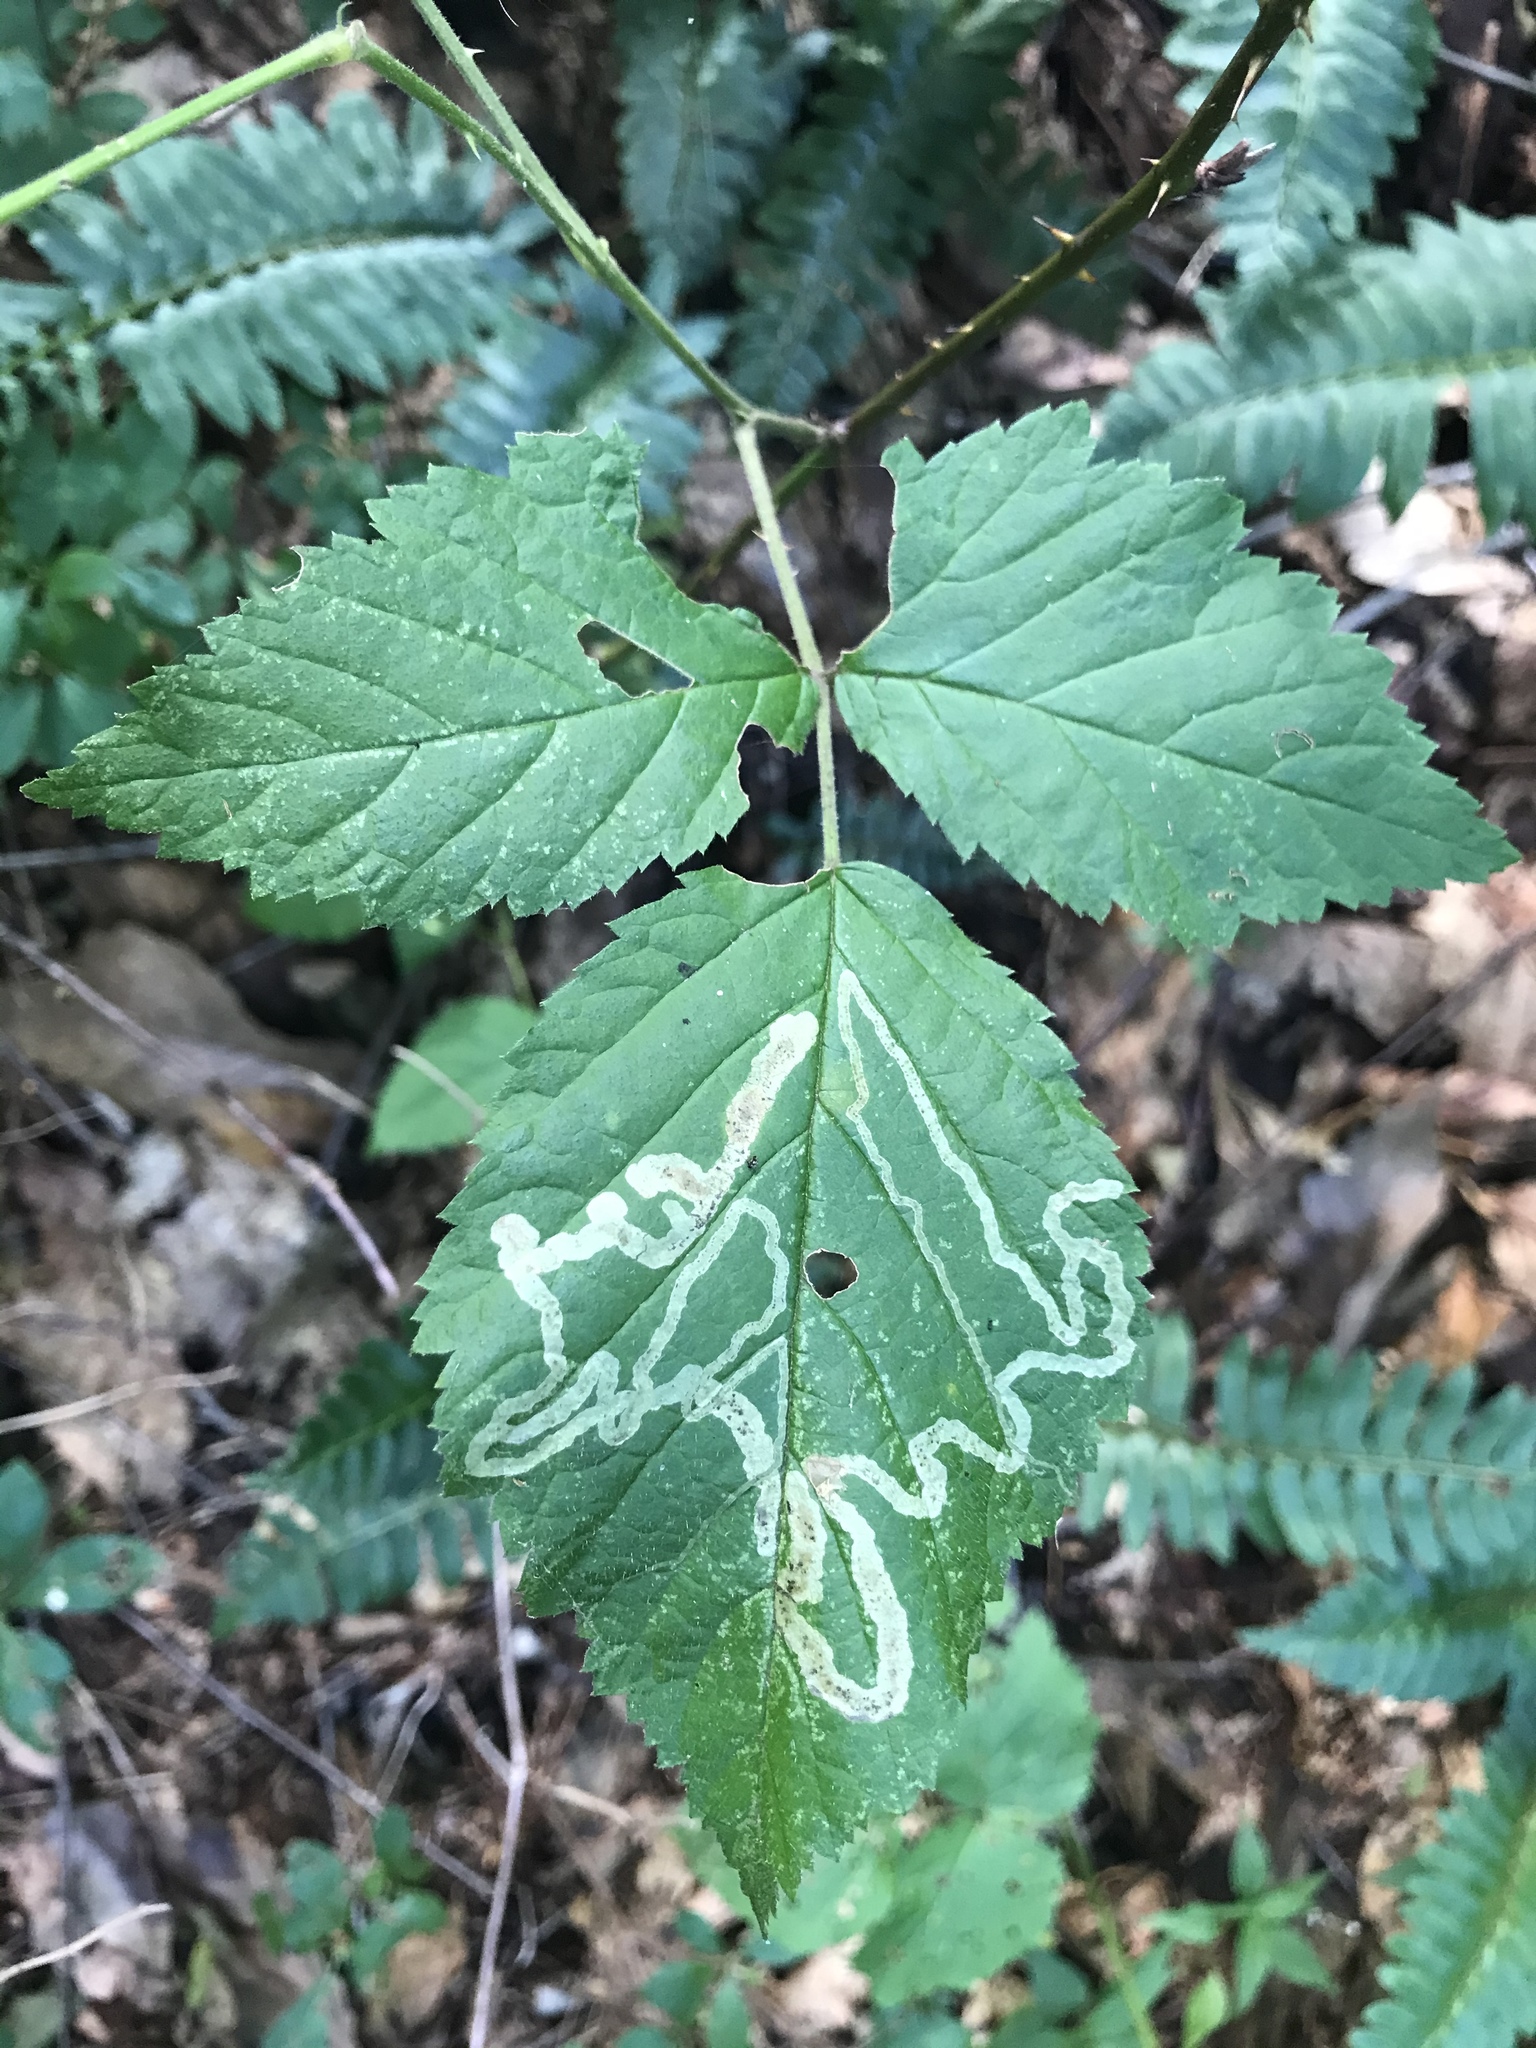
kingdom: Animalia
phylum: Arthropoda
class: Insecta
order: Diptera
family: Agromyzidae
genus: Agromyza
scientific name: Agromyza vockerothi
